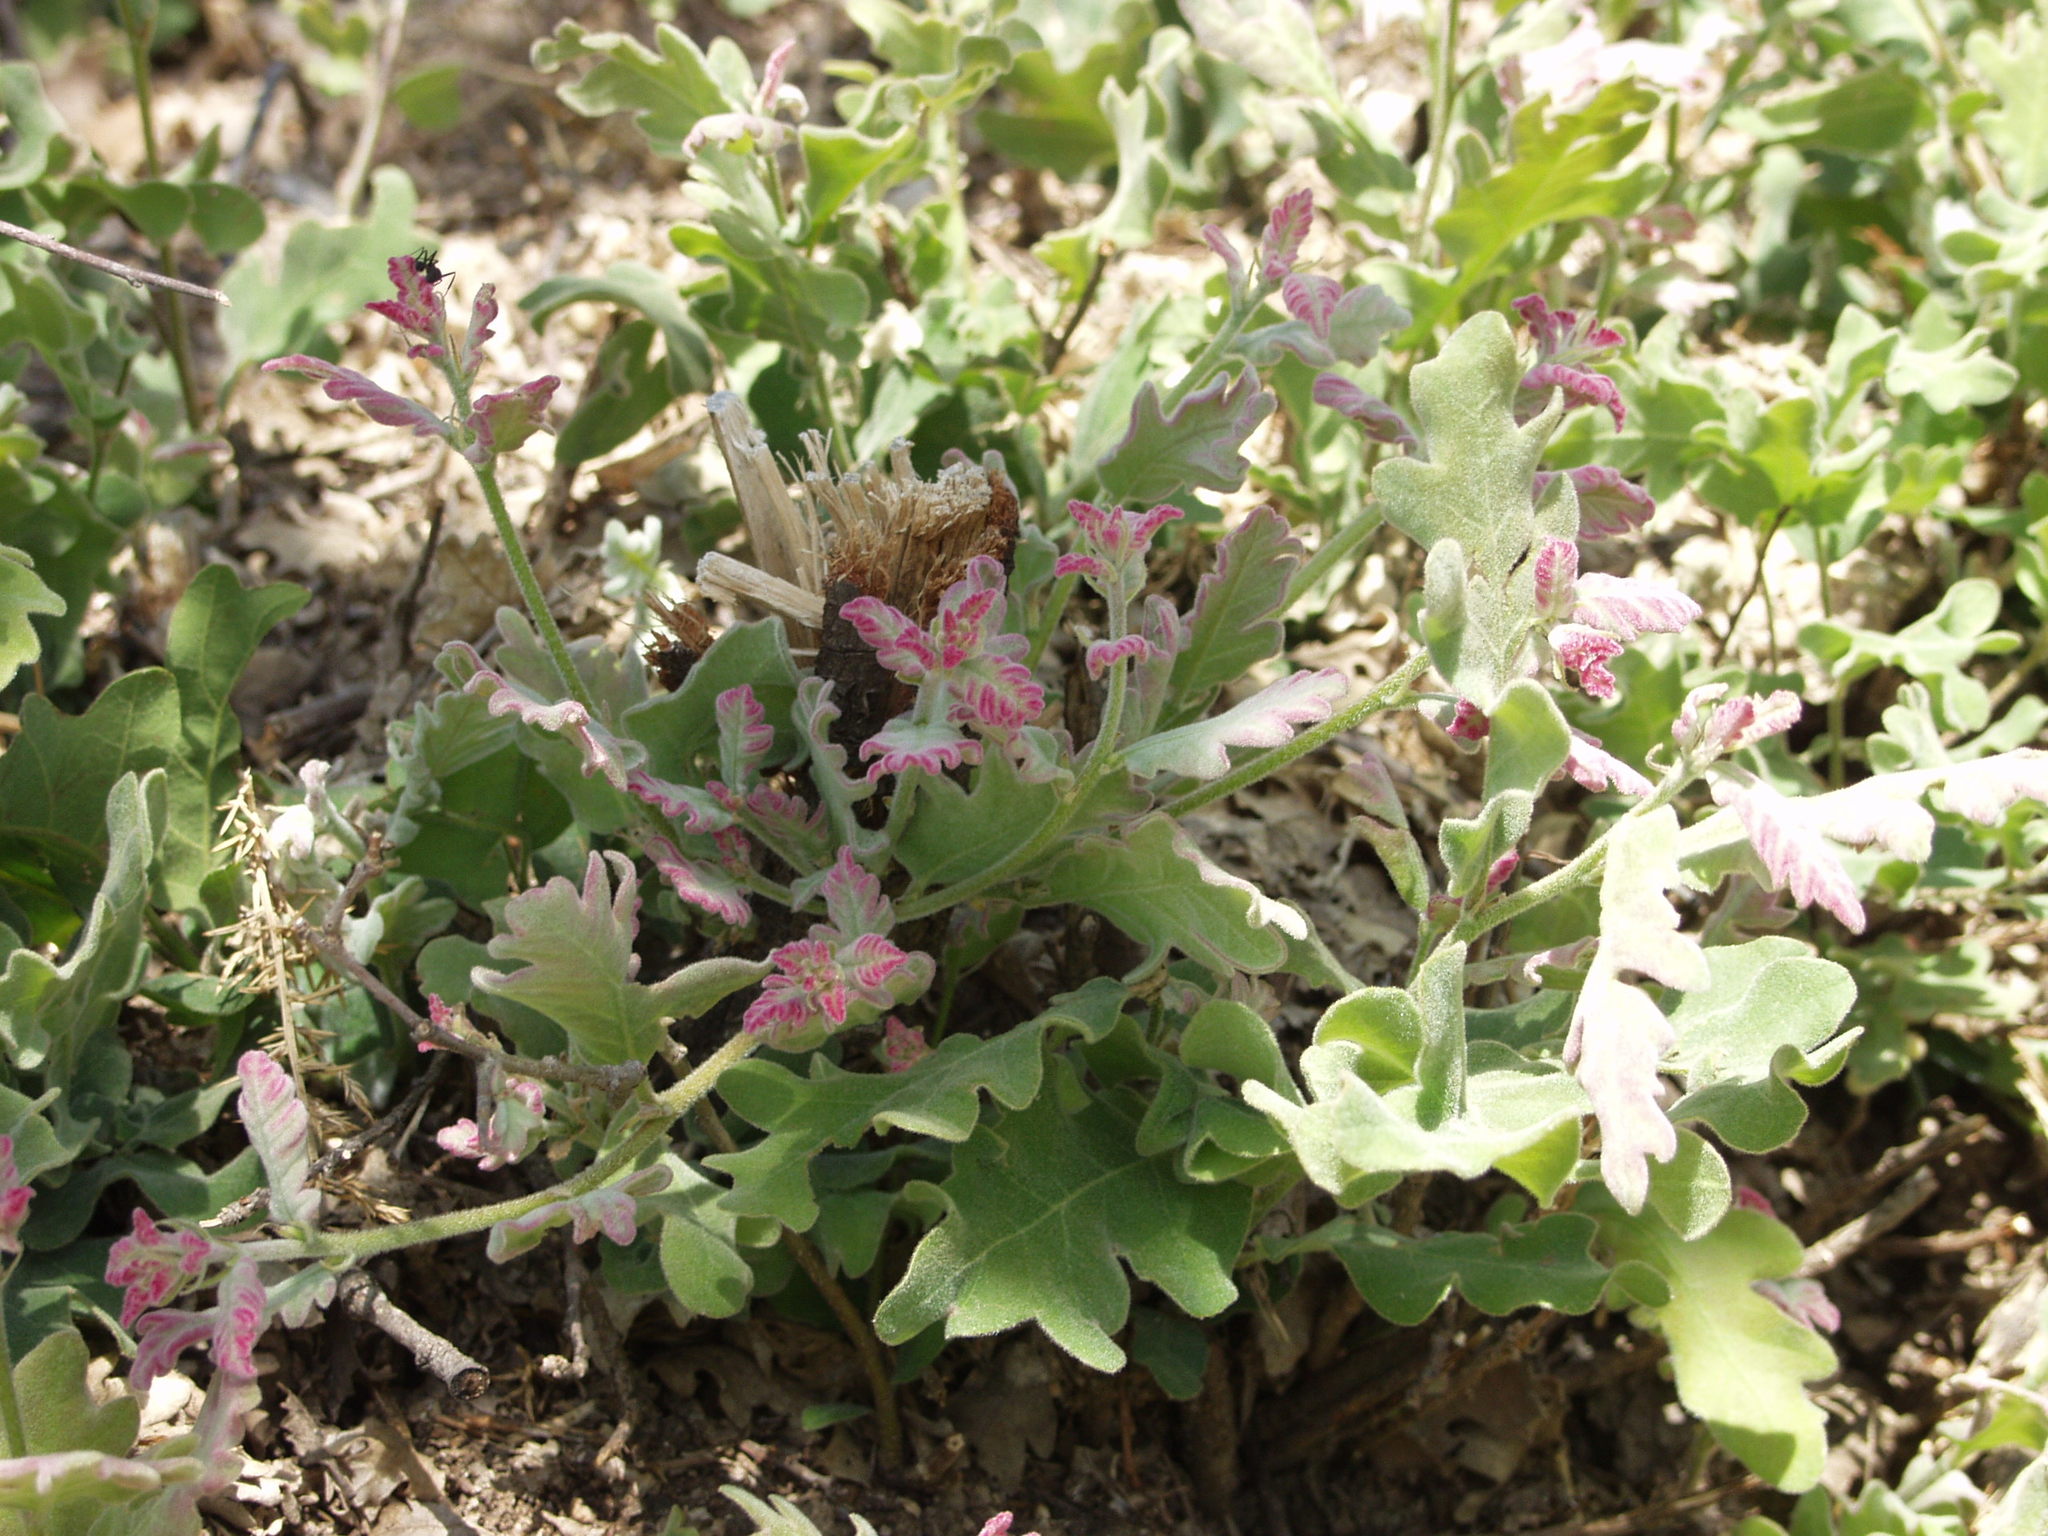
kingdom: Plantae
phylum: Tracheophyta
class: Magnoliopsida
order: Fagales
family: Fagaceae
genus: Quercus
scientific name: Quercus pyrenaica
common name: Pyrenean oak
